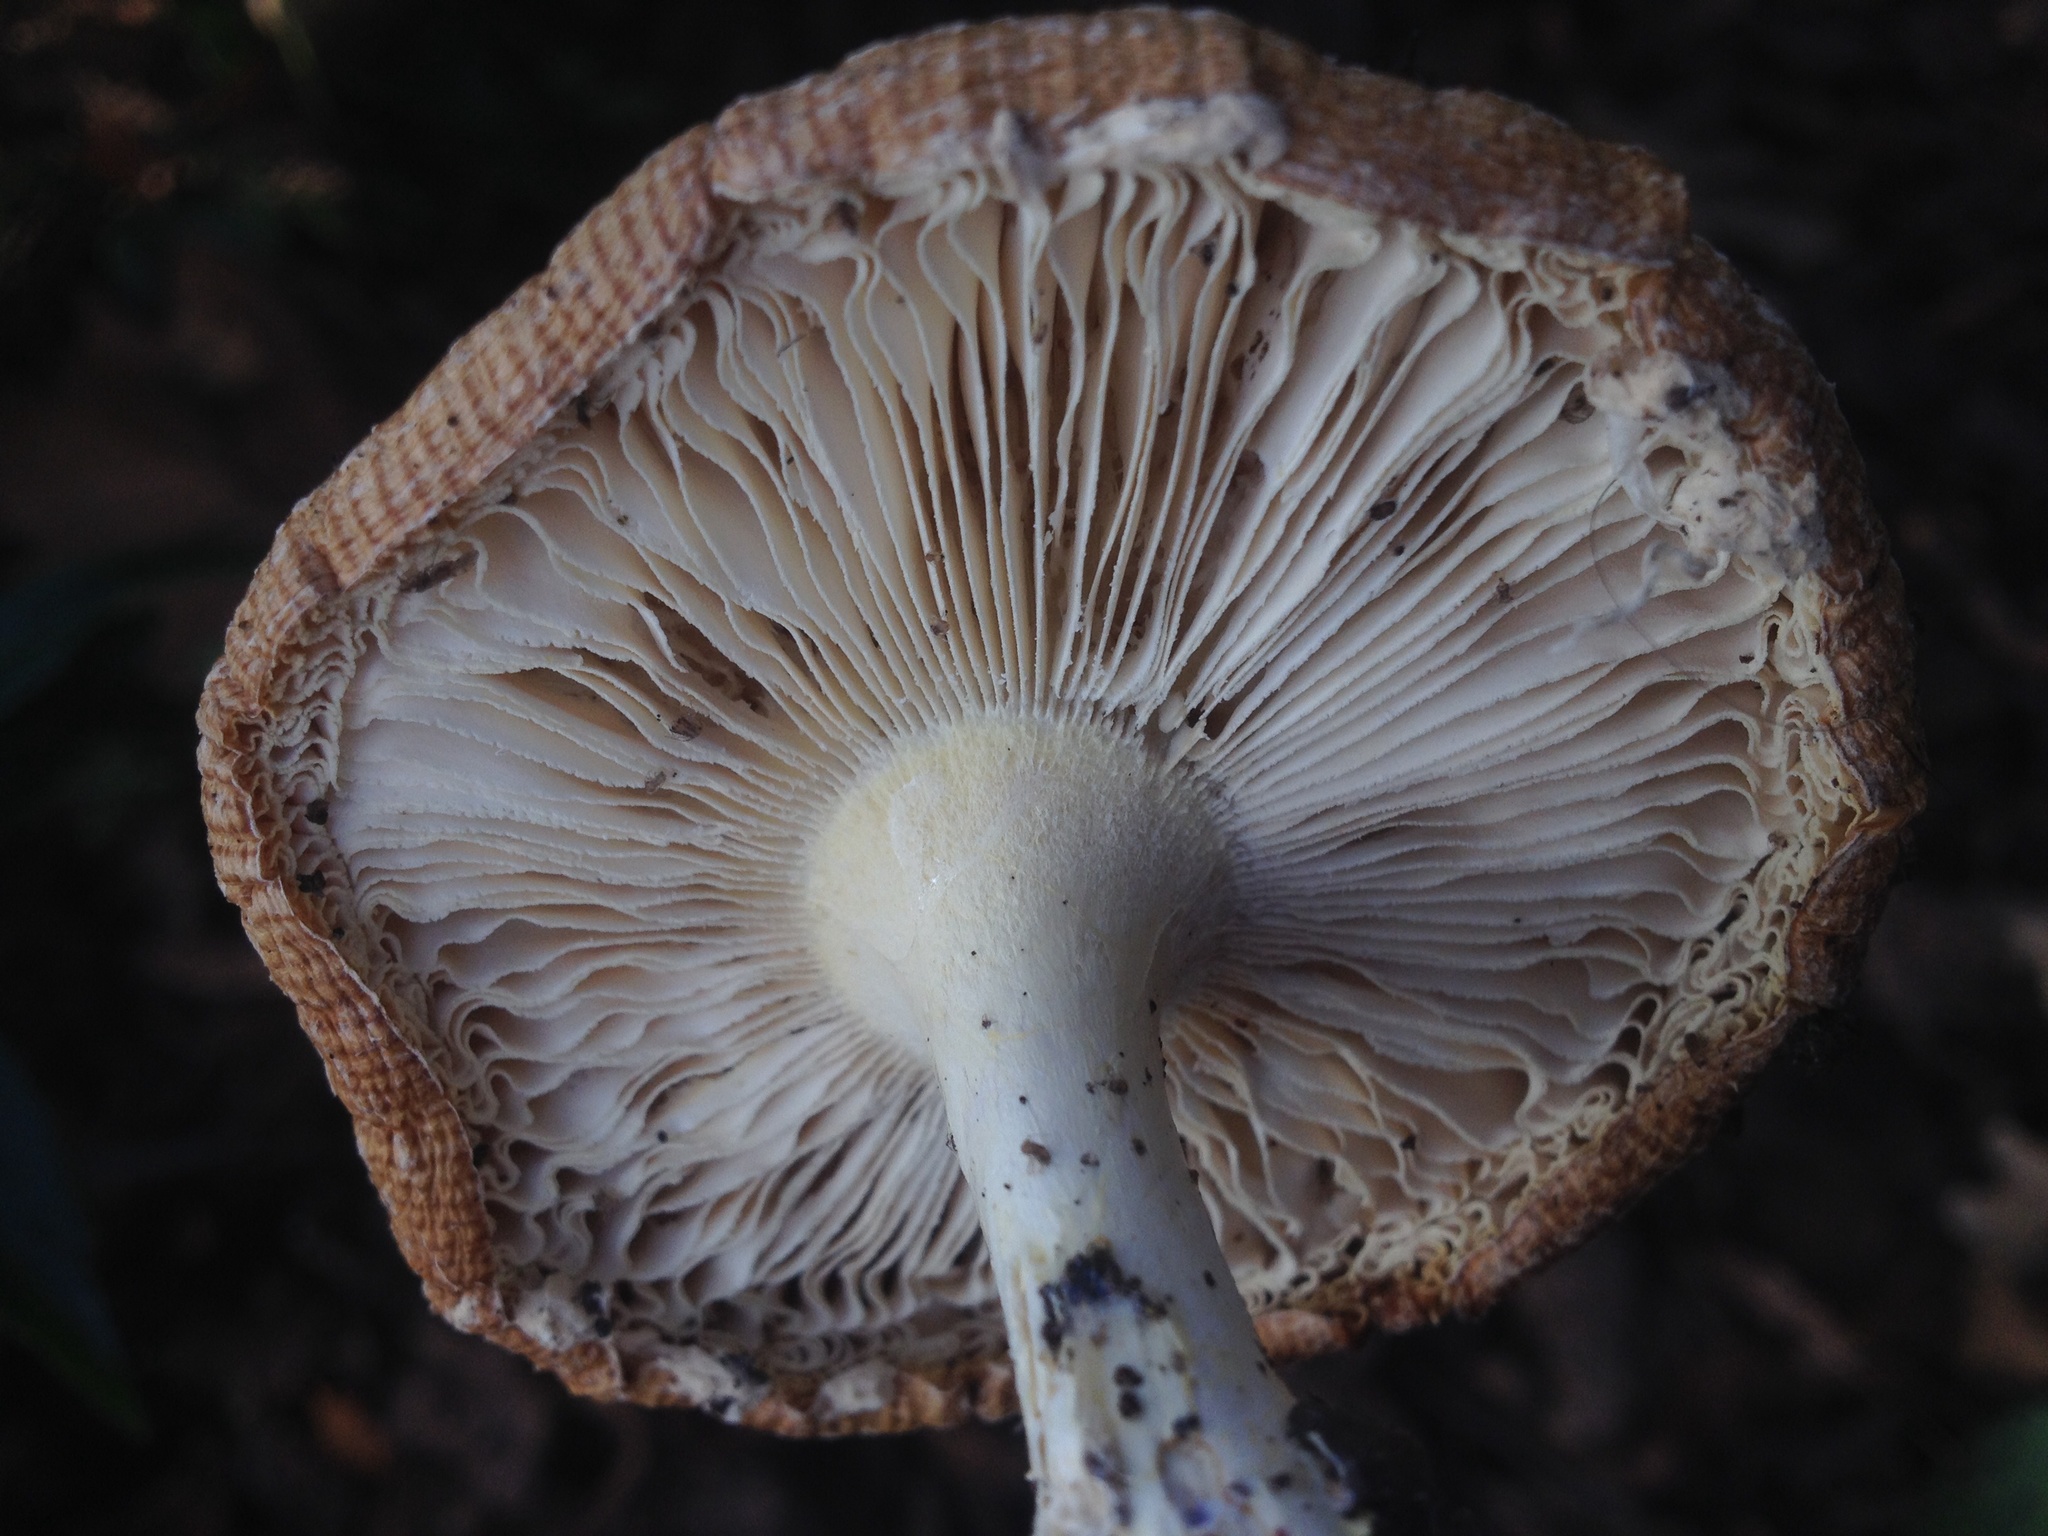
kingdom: Fungi
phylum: Basidiomycota
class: Agaricomycetes
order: Agaricales
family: Amanitaceae
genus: Amanita
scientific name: Amanita muscaria
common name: Fly agaric
